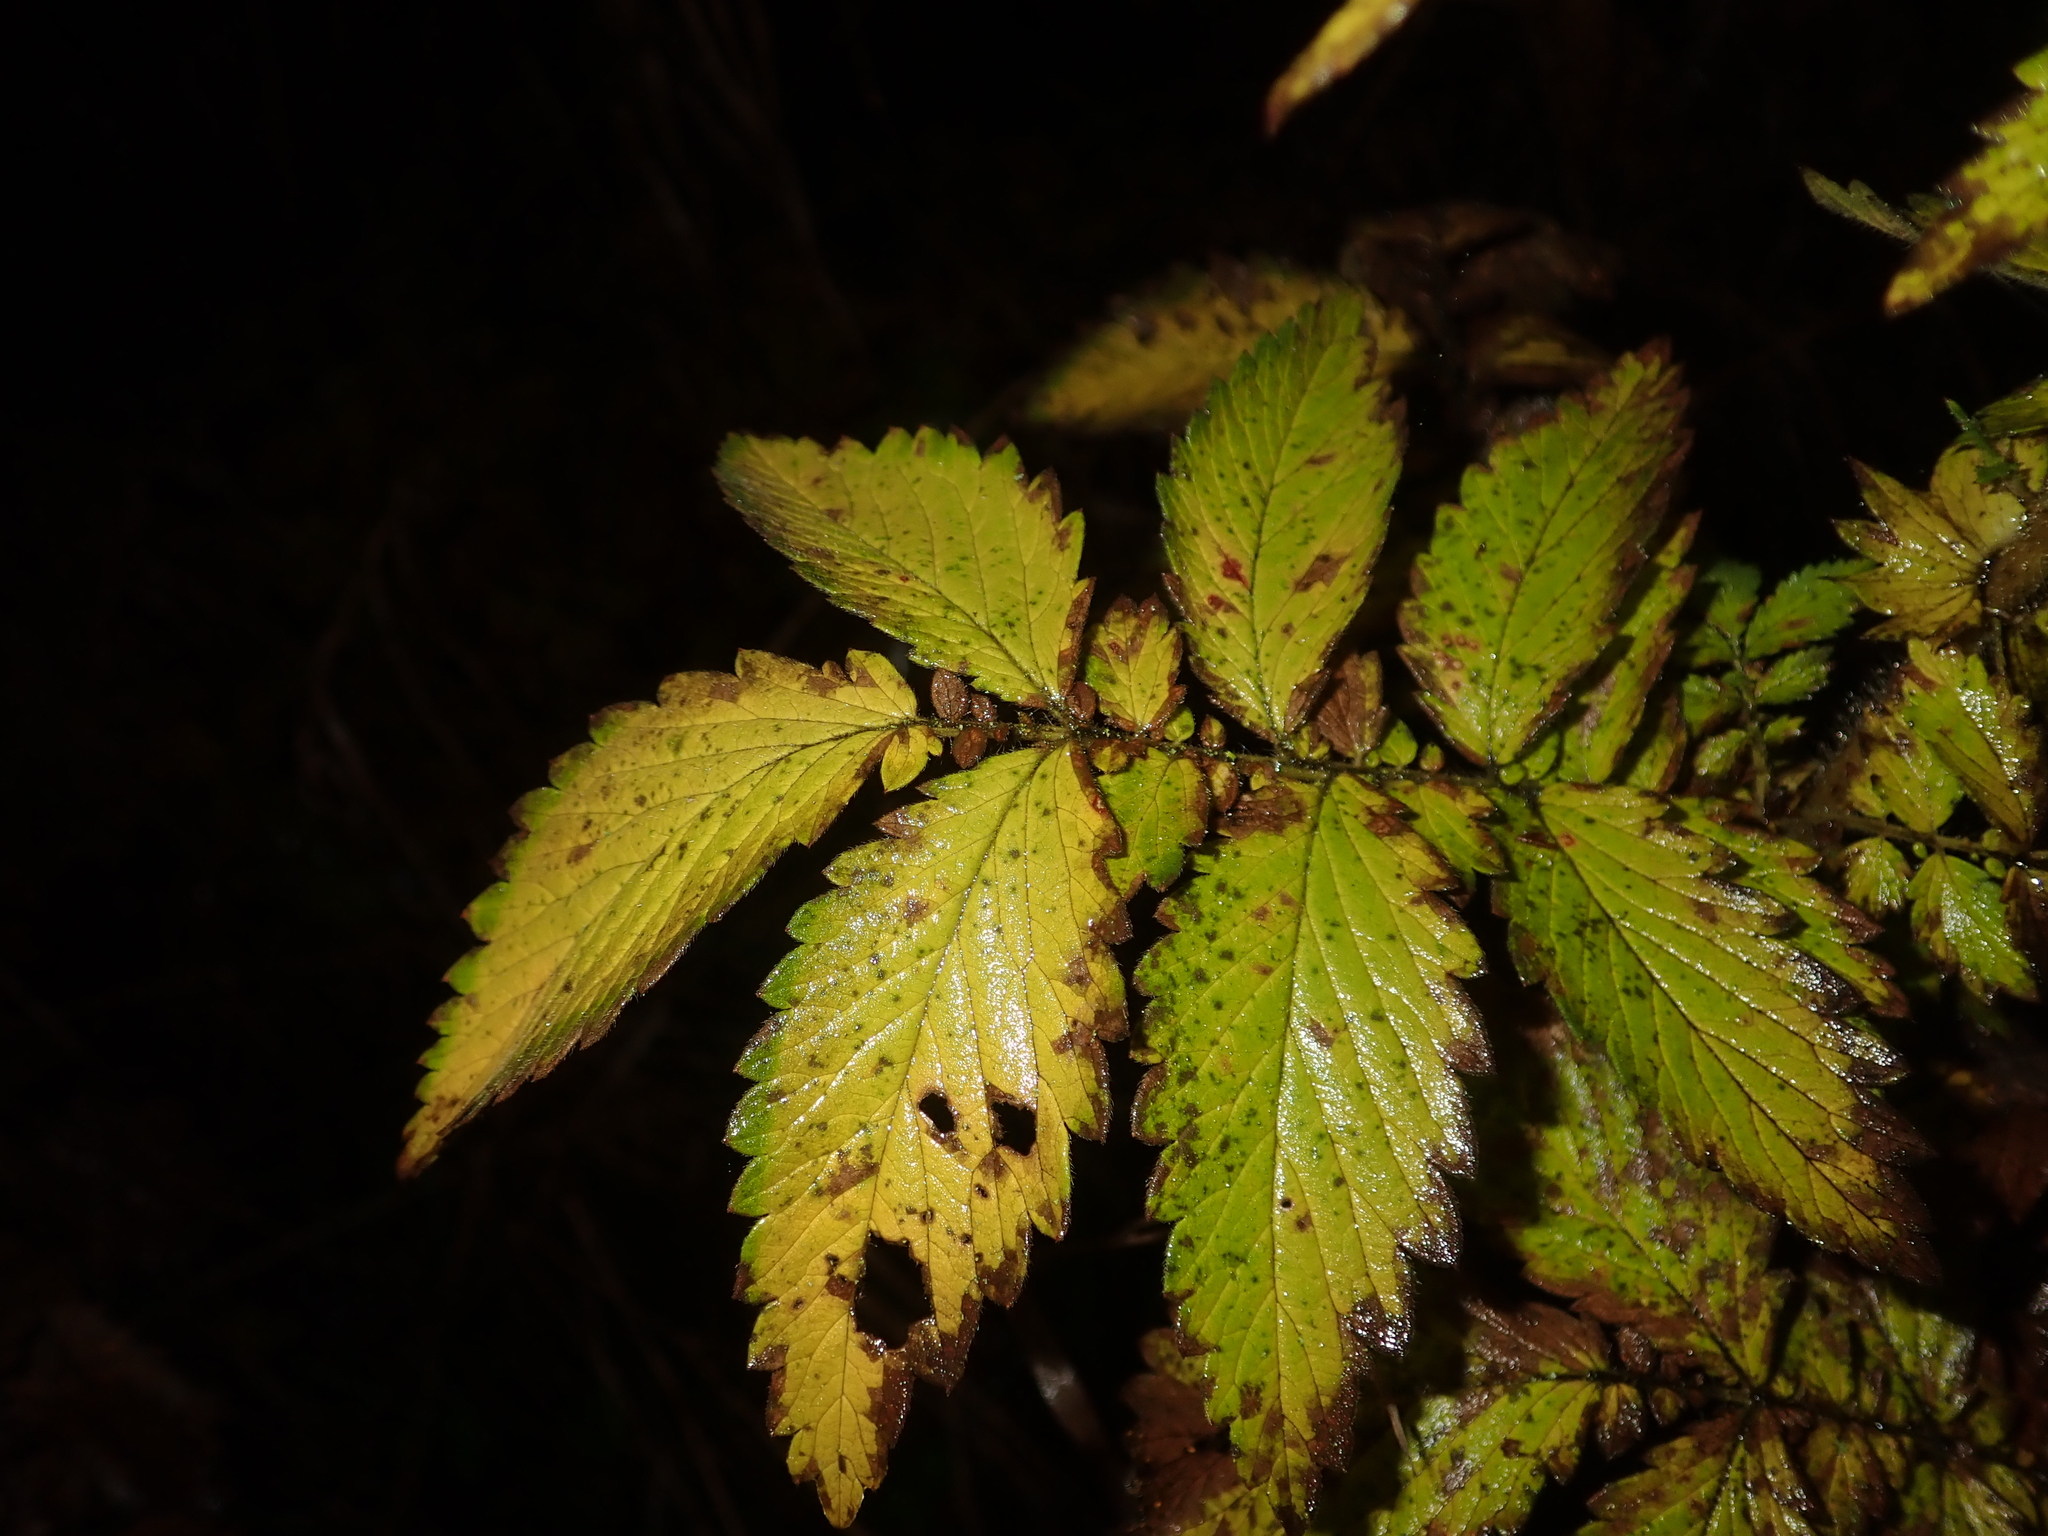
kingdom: Plantae
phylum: Tracheophyta
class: Magnoliopsida
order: Rosales
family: Rosaceae
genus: Agrimonia
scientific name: Agrimonia eupatoria
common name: Agrimony
